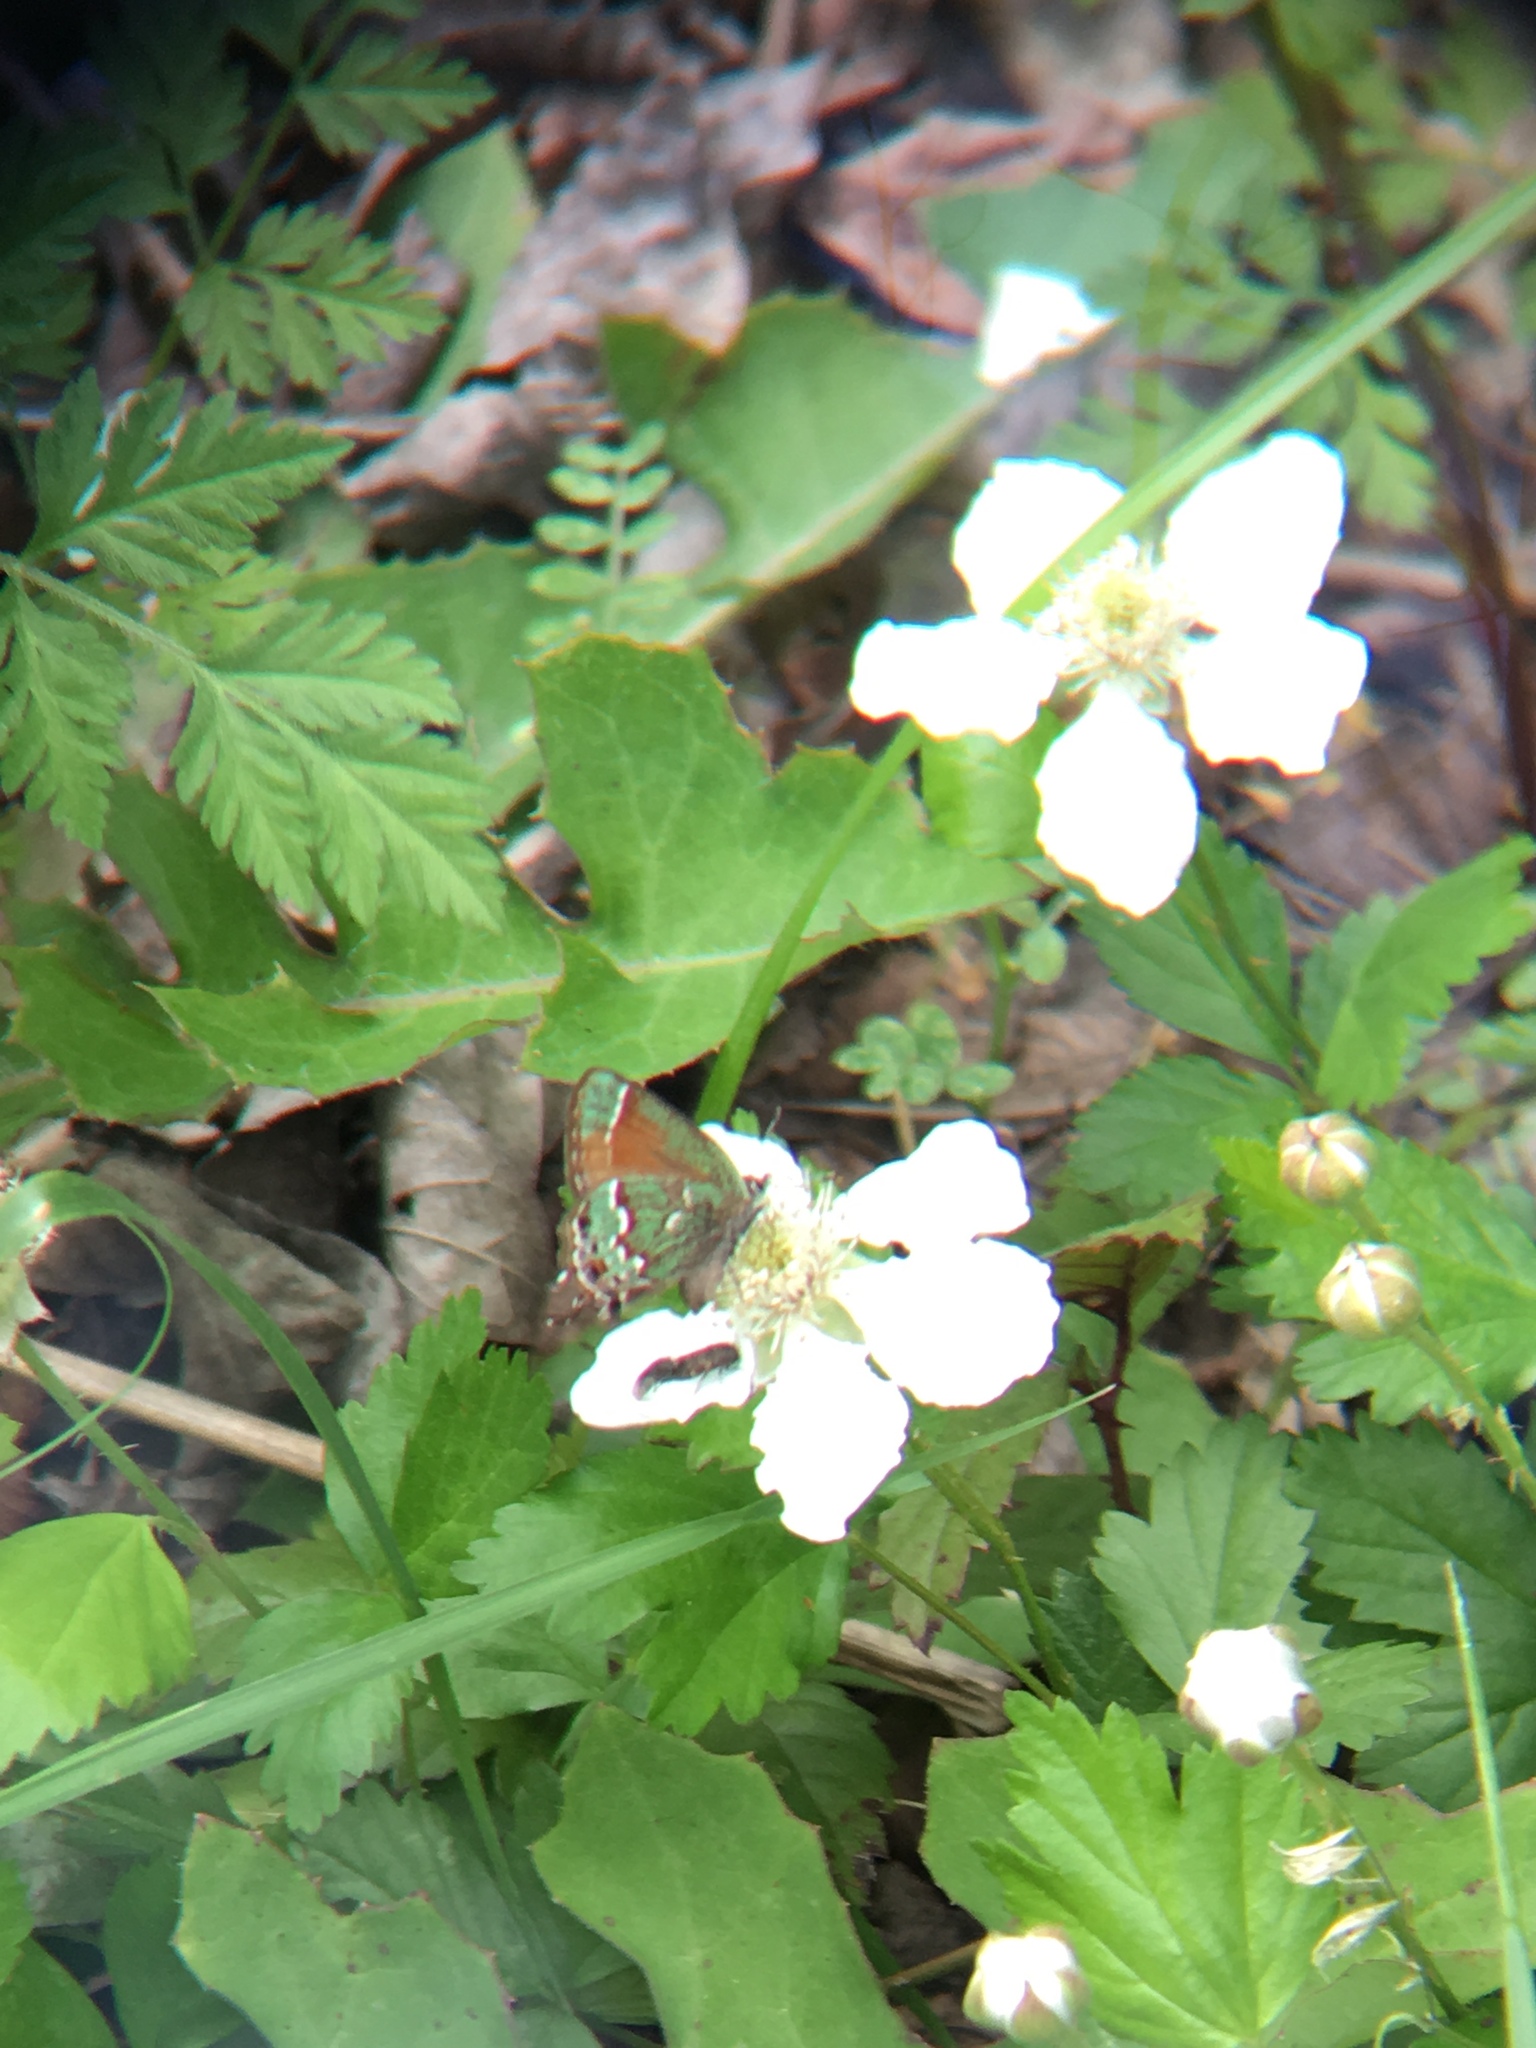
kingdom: Animalia
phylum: Arthropoda
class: Insecta
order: Lepidoptera
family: Lycaenidae
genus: Mitoura
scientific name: Mitoura gryneus
